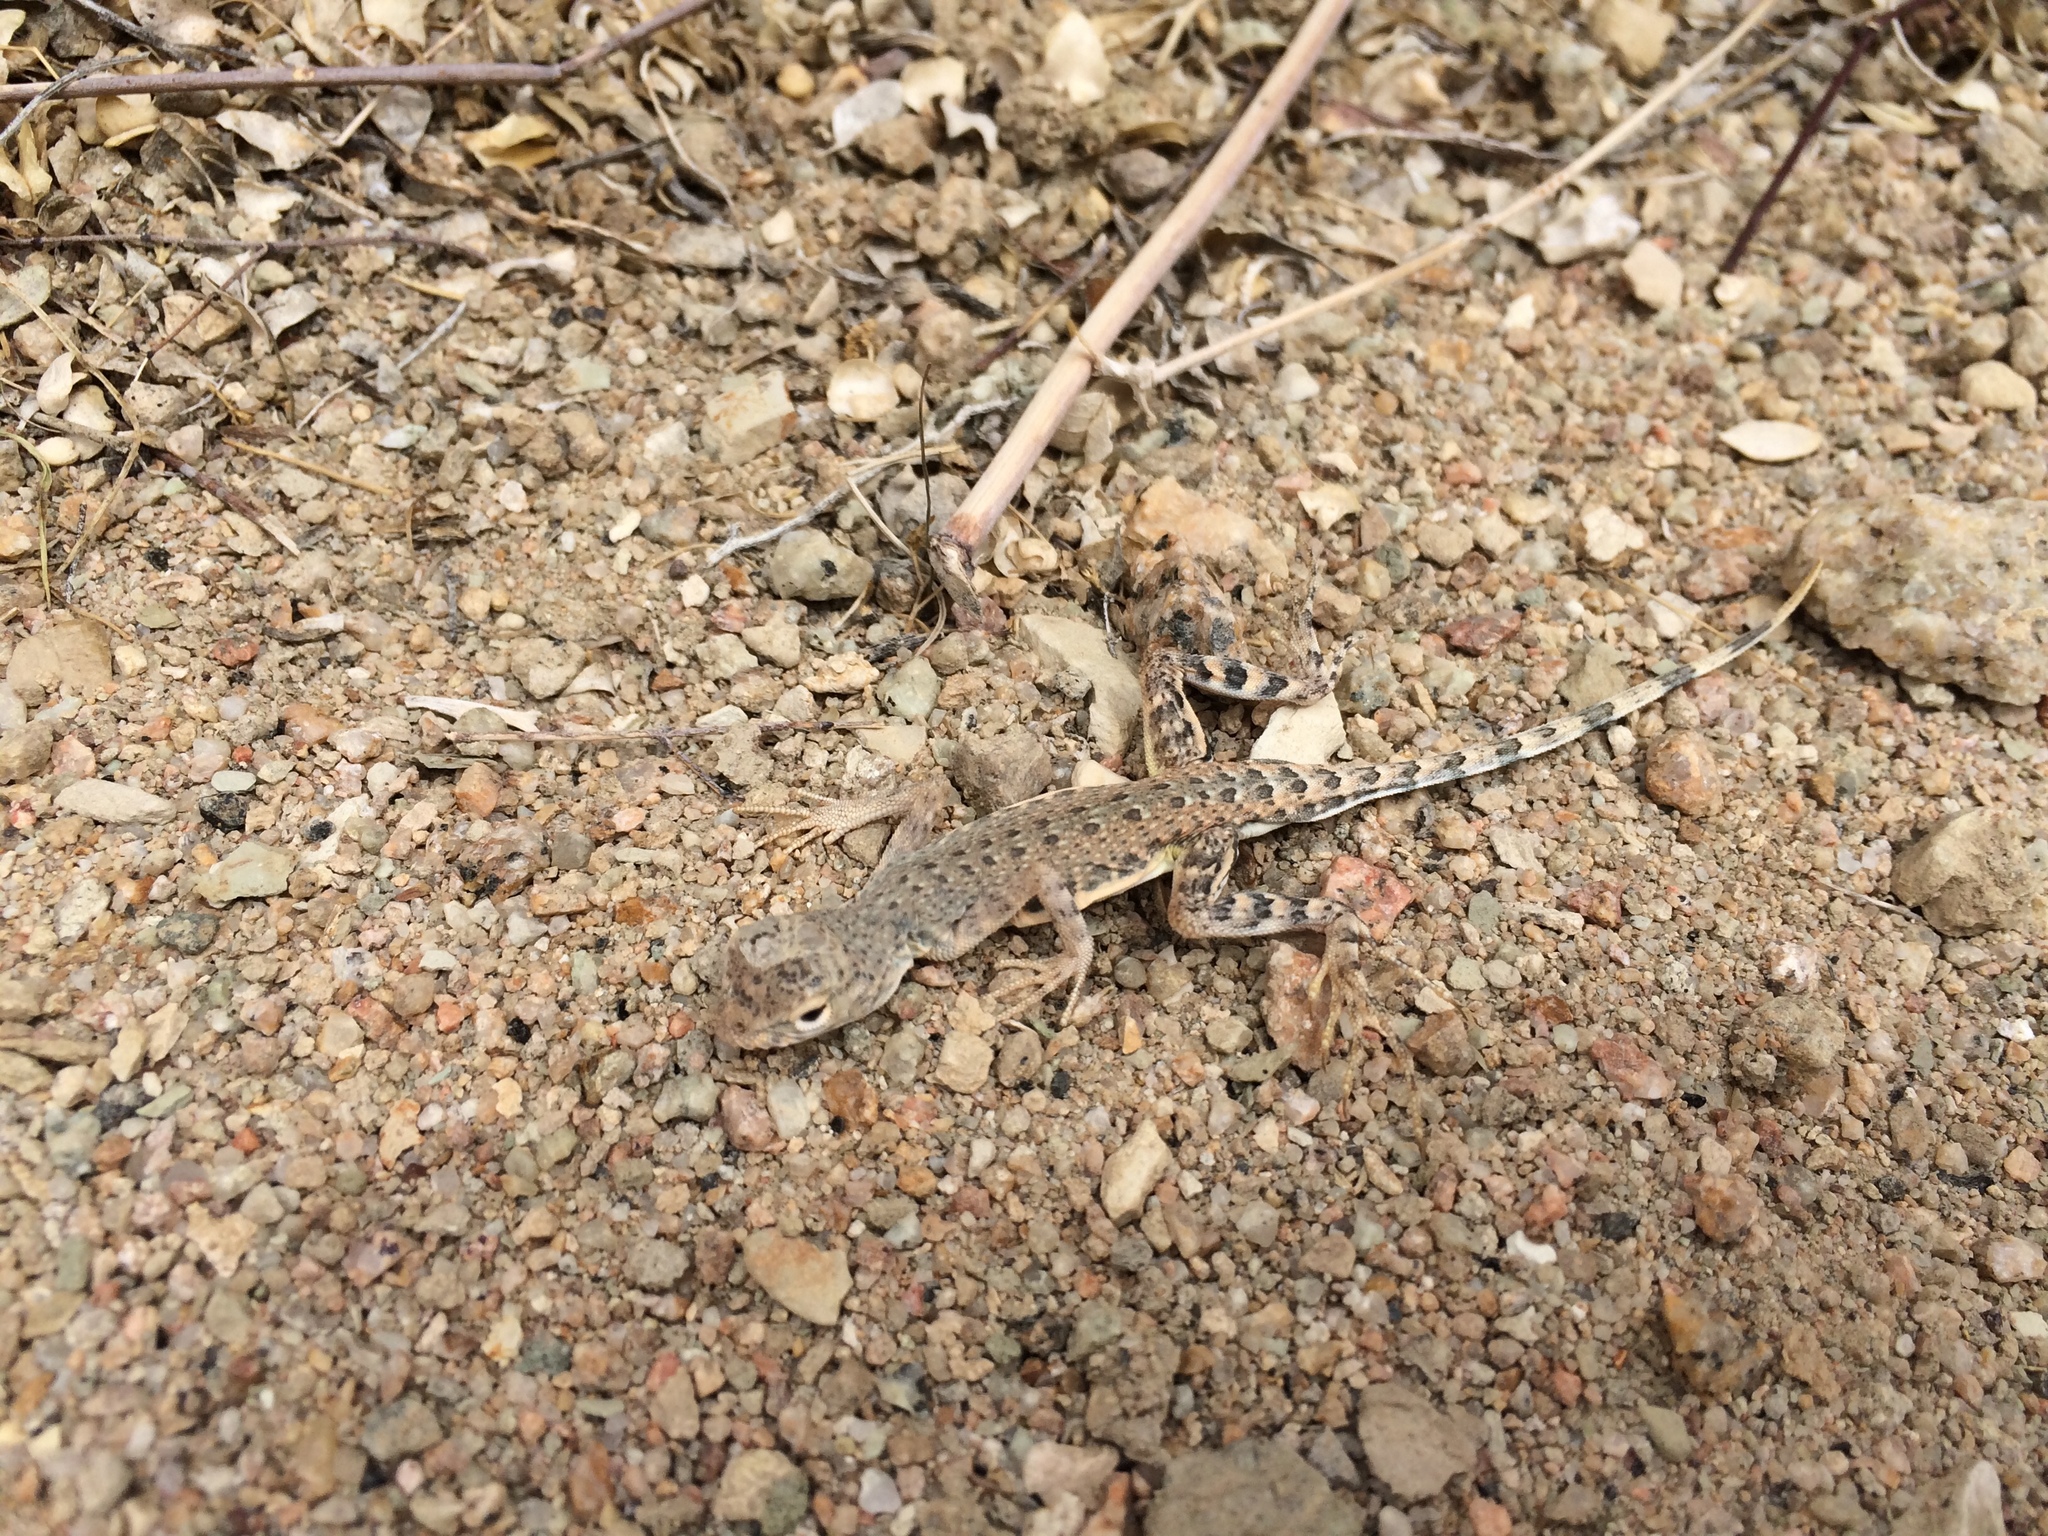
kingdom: Animalia
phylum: Chordata
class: Squamata
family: Phrynosomatidae
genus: Callisaurus
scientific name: Callisaurus draconoides
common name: Zebra-tailed lizard
